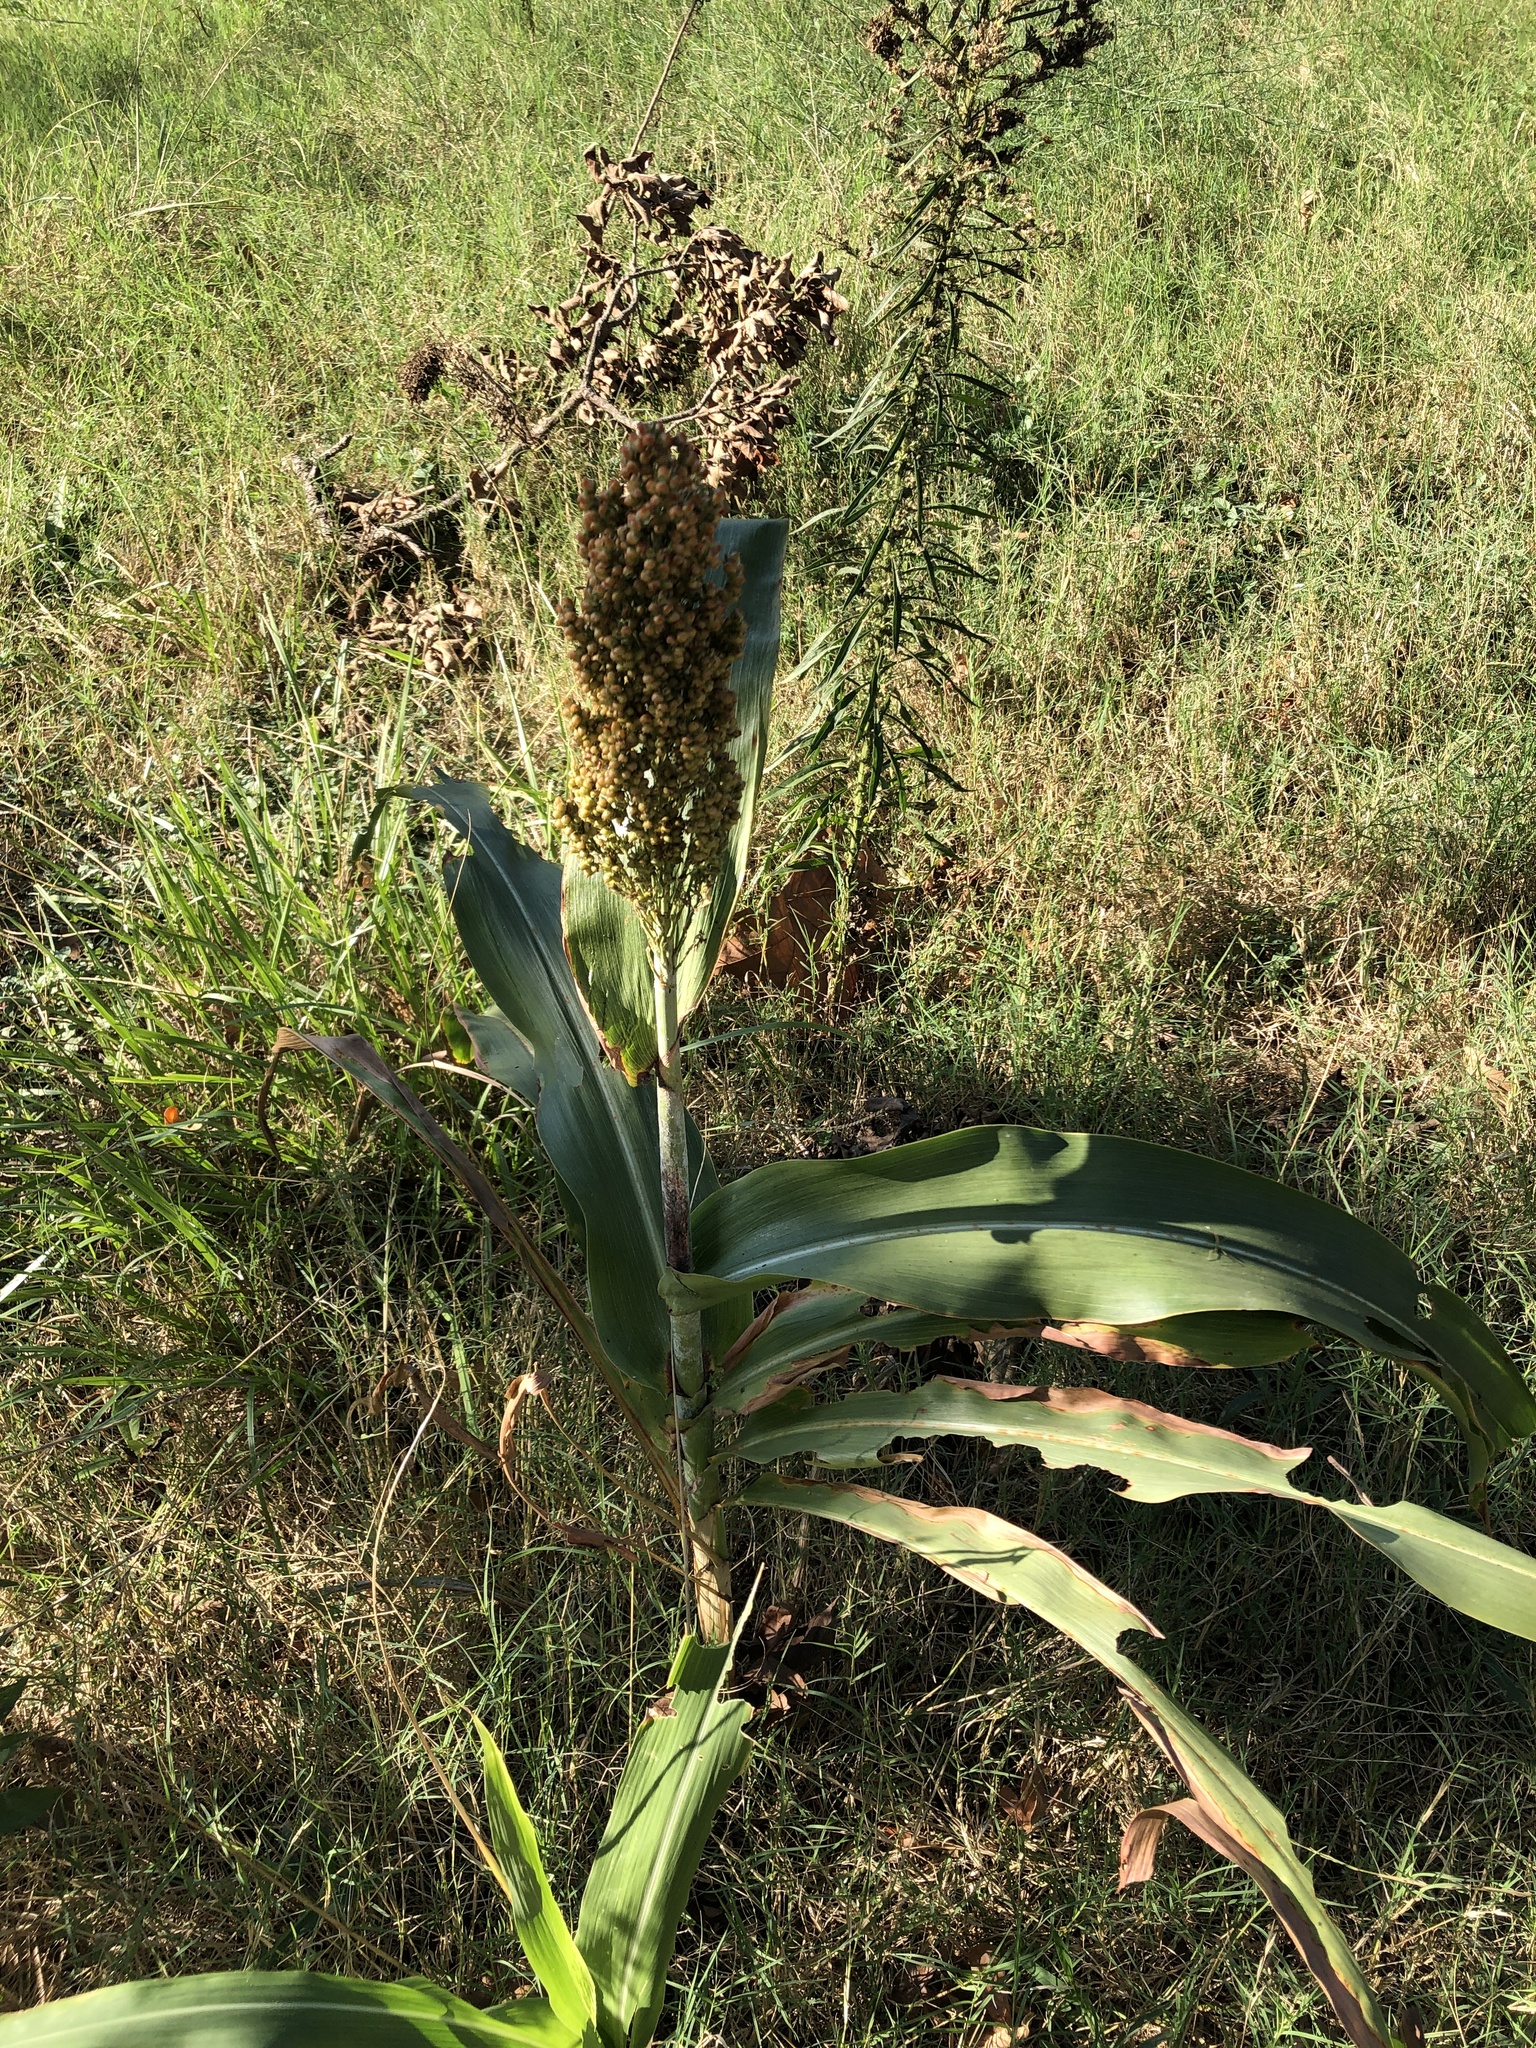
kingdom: Plantae
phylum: Tracheophyta
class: Liliopsida
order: Poales
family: Poaceae
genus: Sorghum
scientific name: Sorghum bicolor
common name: Sorghum
